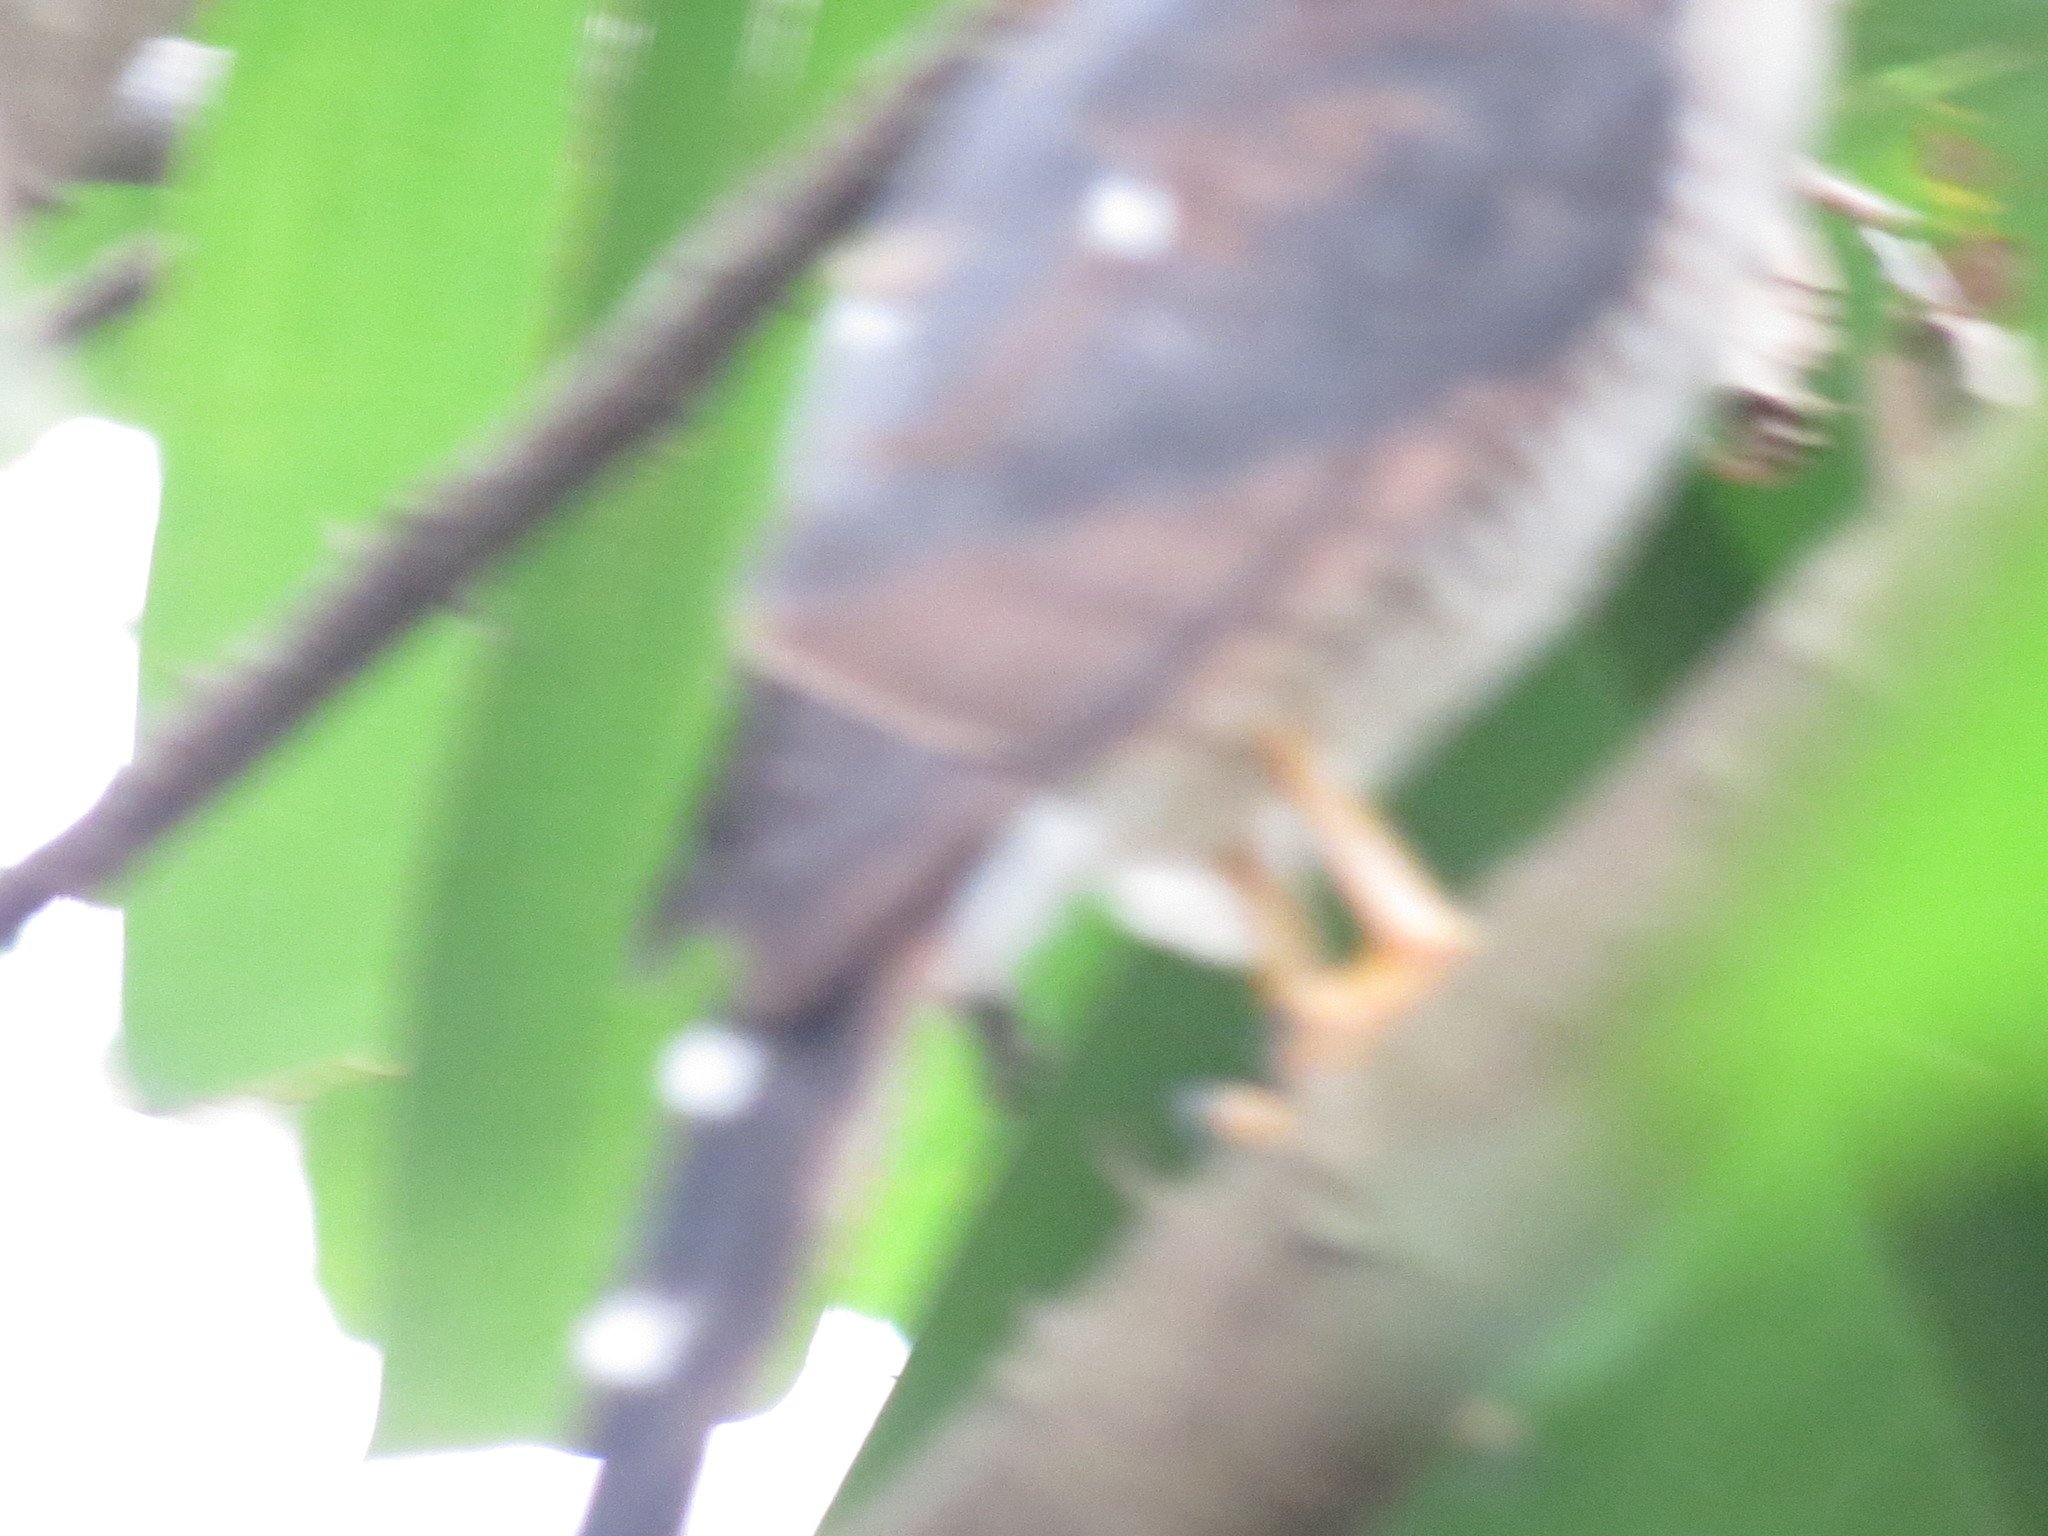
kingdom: Animalia
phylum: Chordata
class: Aves
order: Accipitriformes
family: Accipitridae
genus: Accipiter
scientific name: Accipiter minullus
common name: Little sparrowhawk
